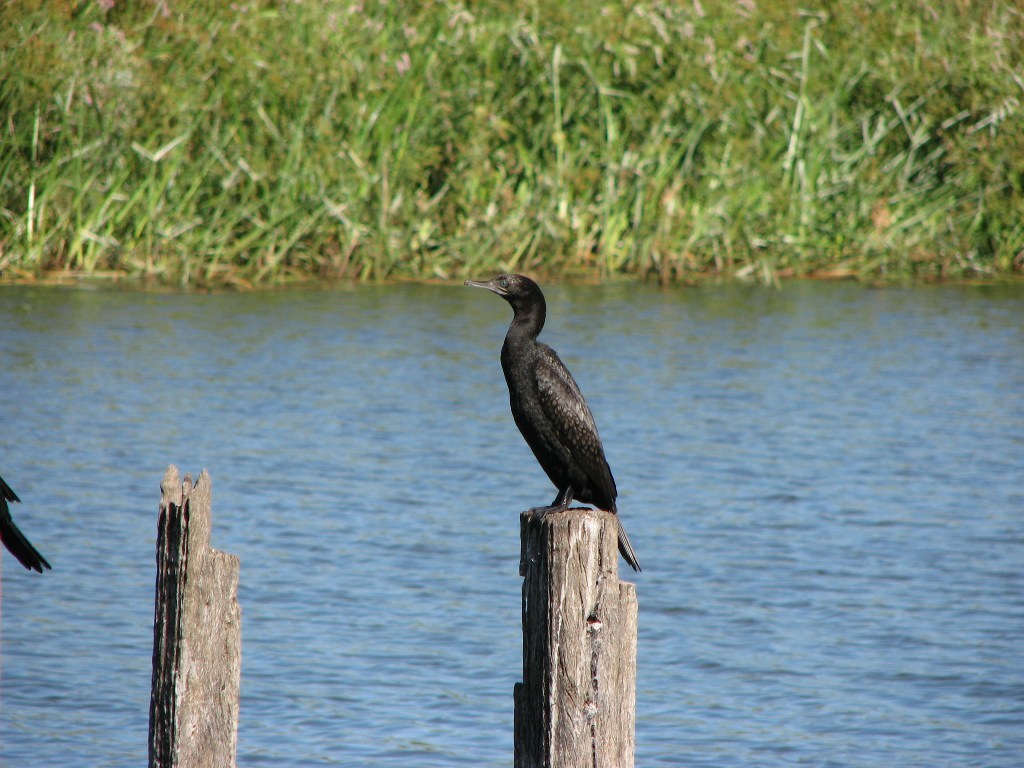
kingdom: Animalia
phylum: Chordata
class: Aves
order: Suliformes
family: Phalacrocoracidae
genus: Phalacrocorax
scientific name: Phalacrocorax sulcirostris
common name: Little black cormorant
